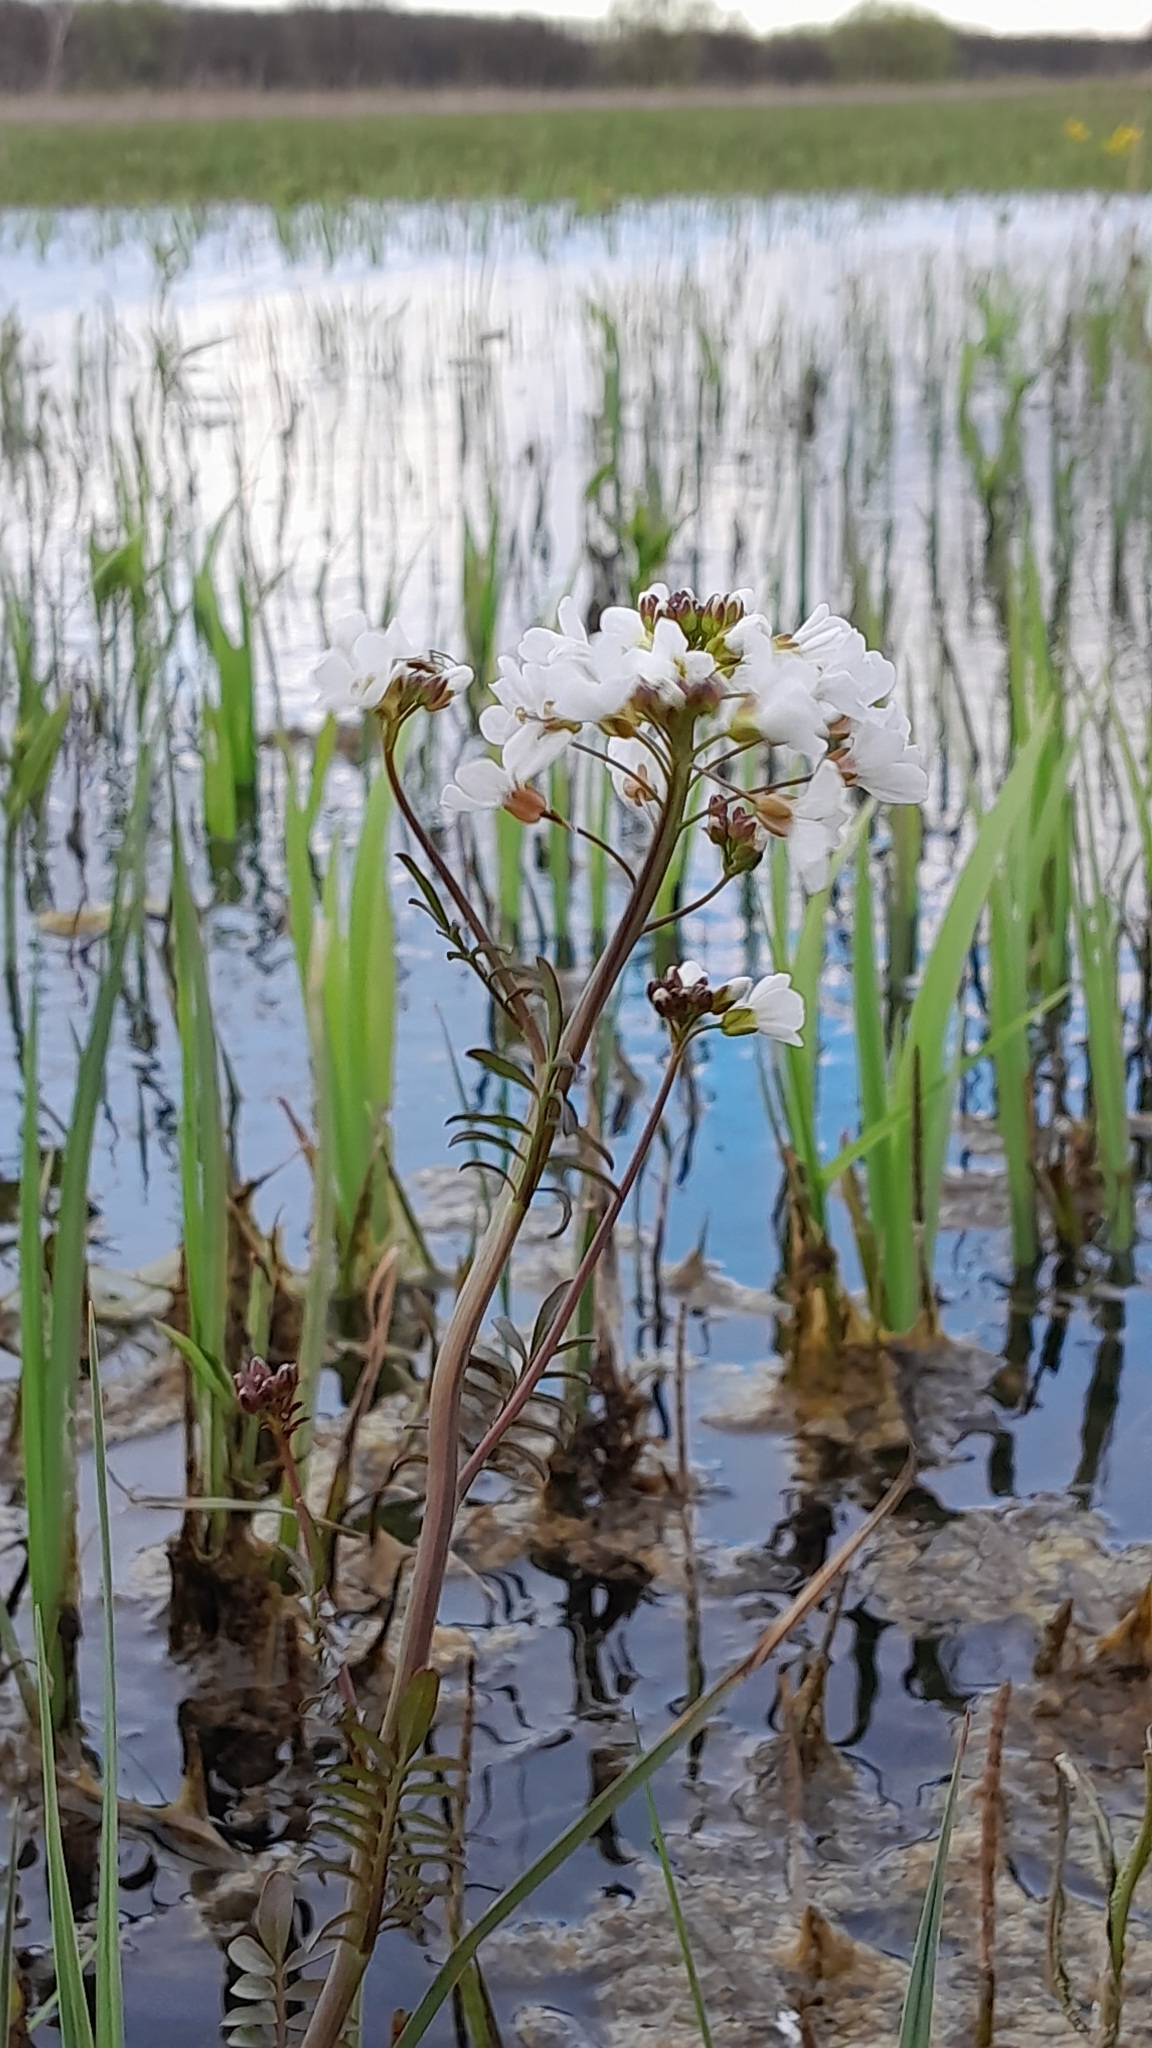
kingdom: Plantae
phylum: Tracheophyta
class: Magnoliopsida
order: Brassicales
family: Brassicaceae
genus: Cardamine
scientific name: Cardamine pratensis
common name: Cuckoo flower
